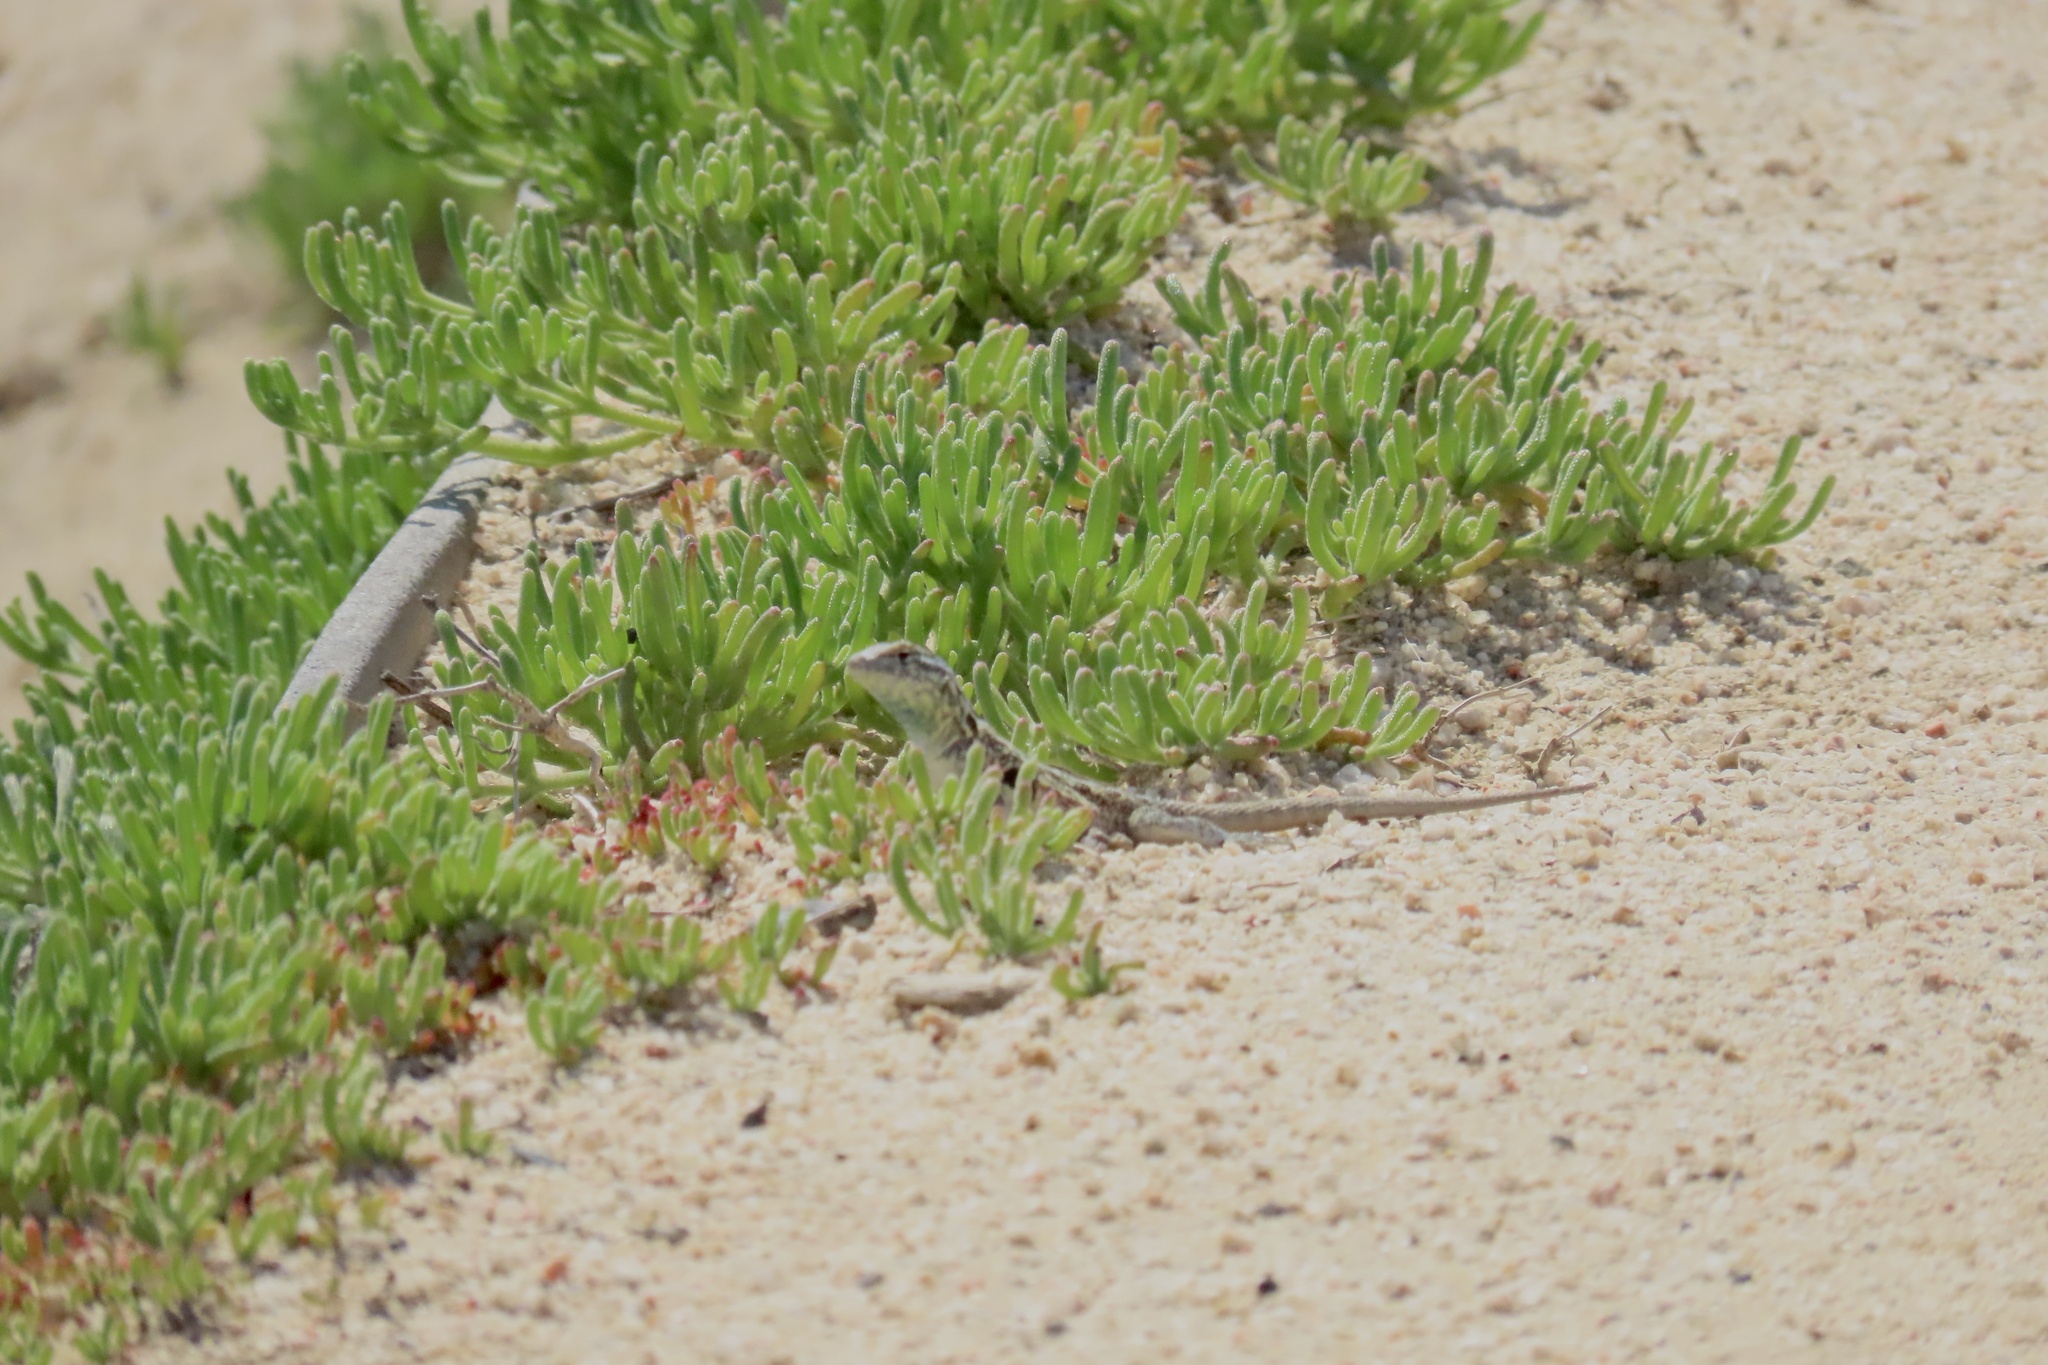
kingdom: Animalia
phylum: Chordata
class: Squamata
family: Phrynosomatidae
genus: Uta
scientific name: Uta stansburiana
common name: Side-blotched lizard
